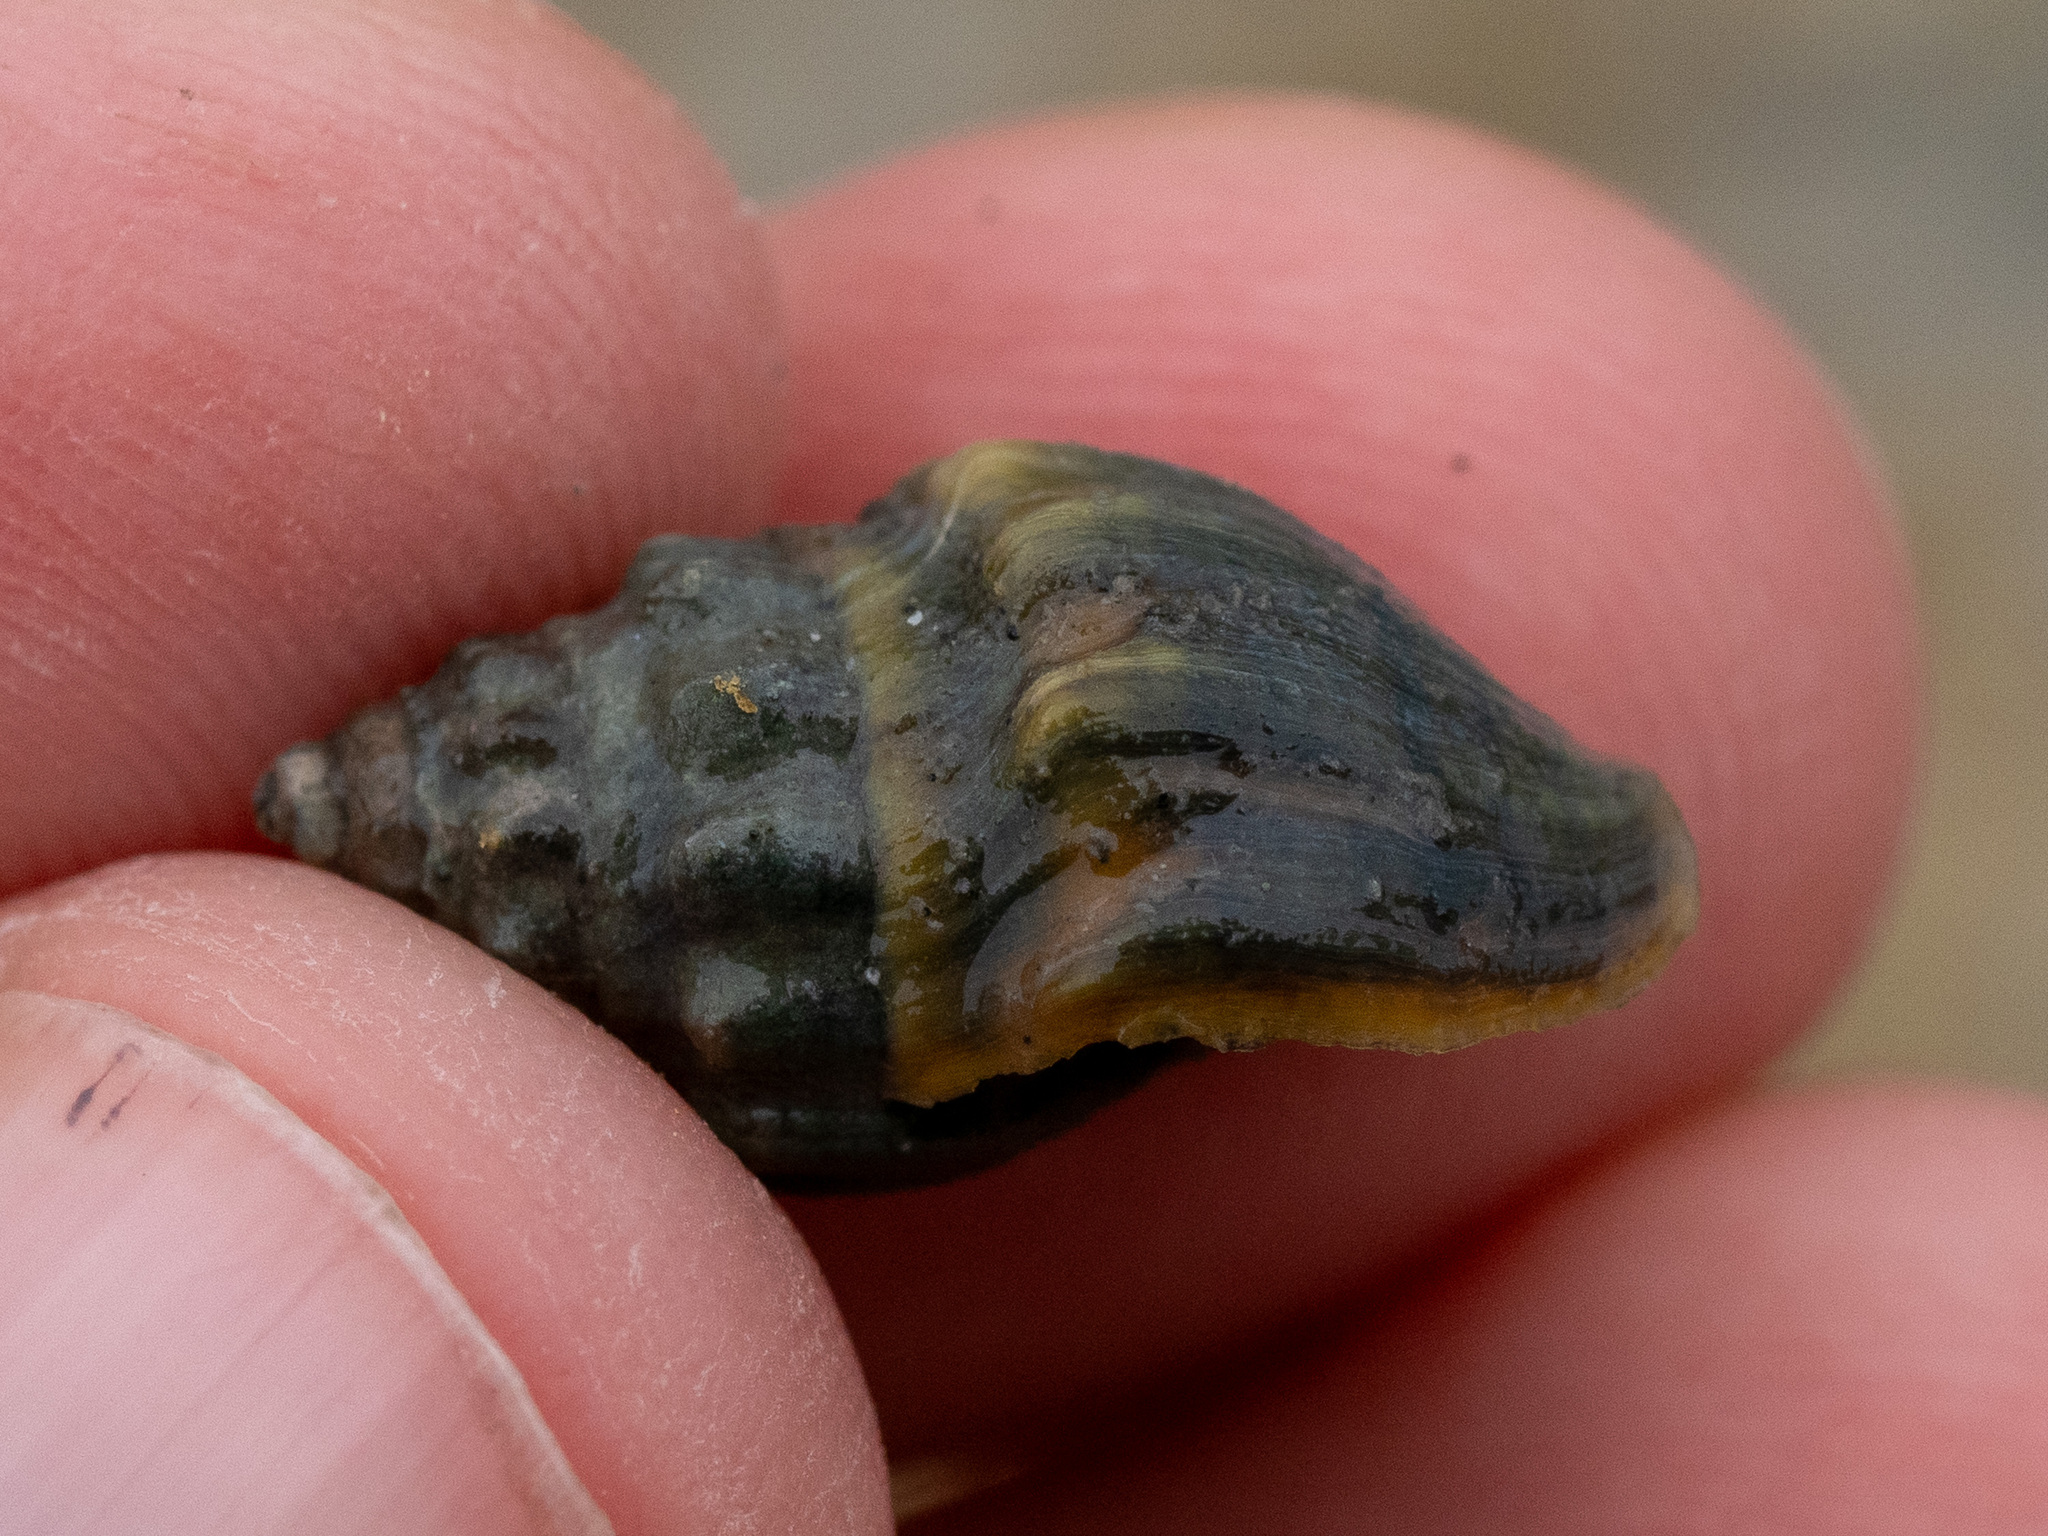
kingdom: Animalia
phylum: Mollusca
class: Gastropoda
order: Neogastropoda
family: Cominellidae
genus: Cominella
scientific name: Cominella glandiformis
